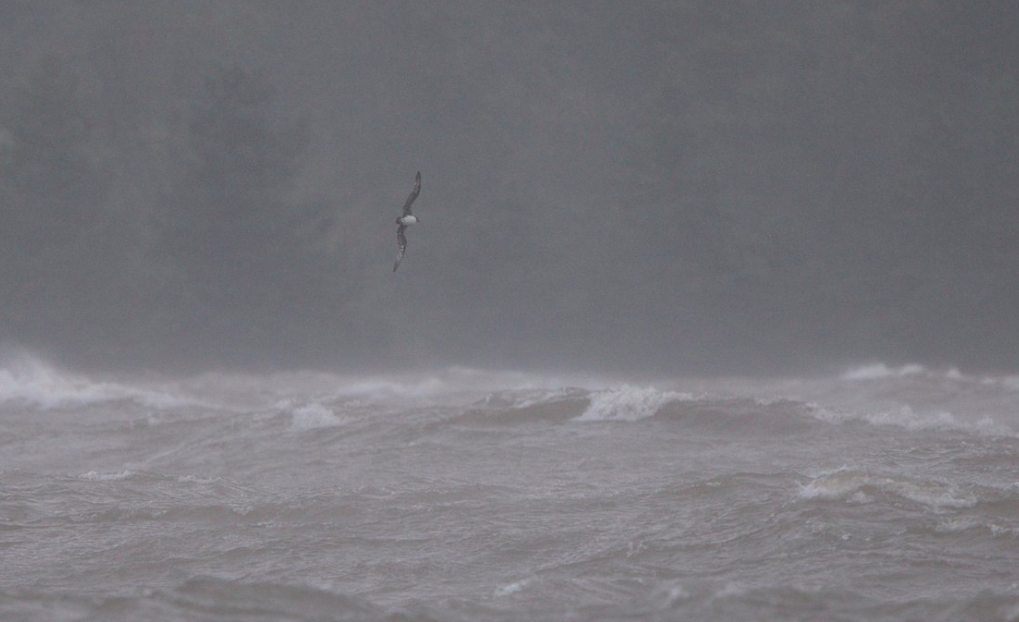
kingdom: Animalia
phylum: Chordata
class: Aves
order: Procellariiformes
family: Procellariidae
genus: Pterodroma
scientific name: Pterodroma arminjoniana
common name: Trindade petrel
